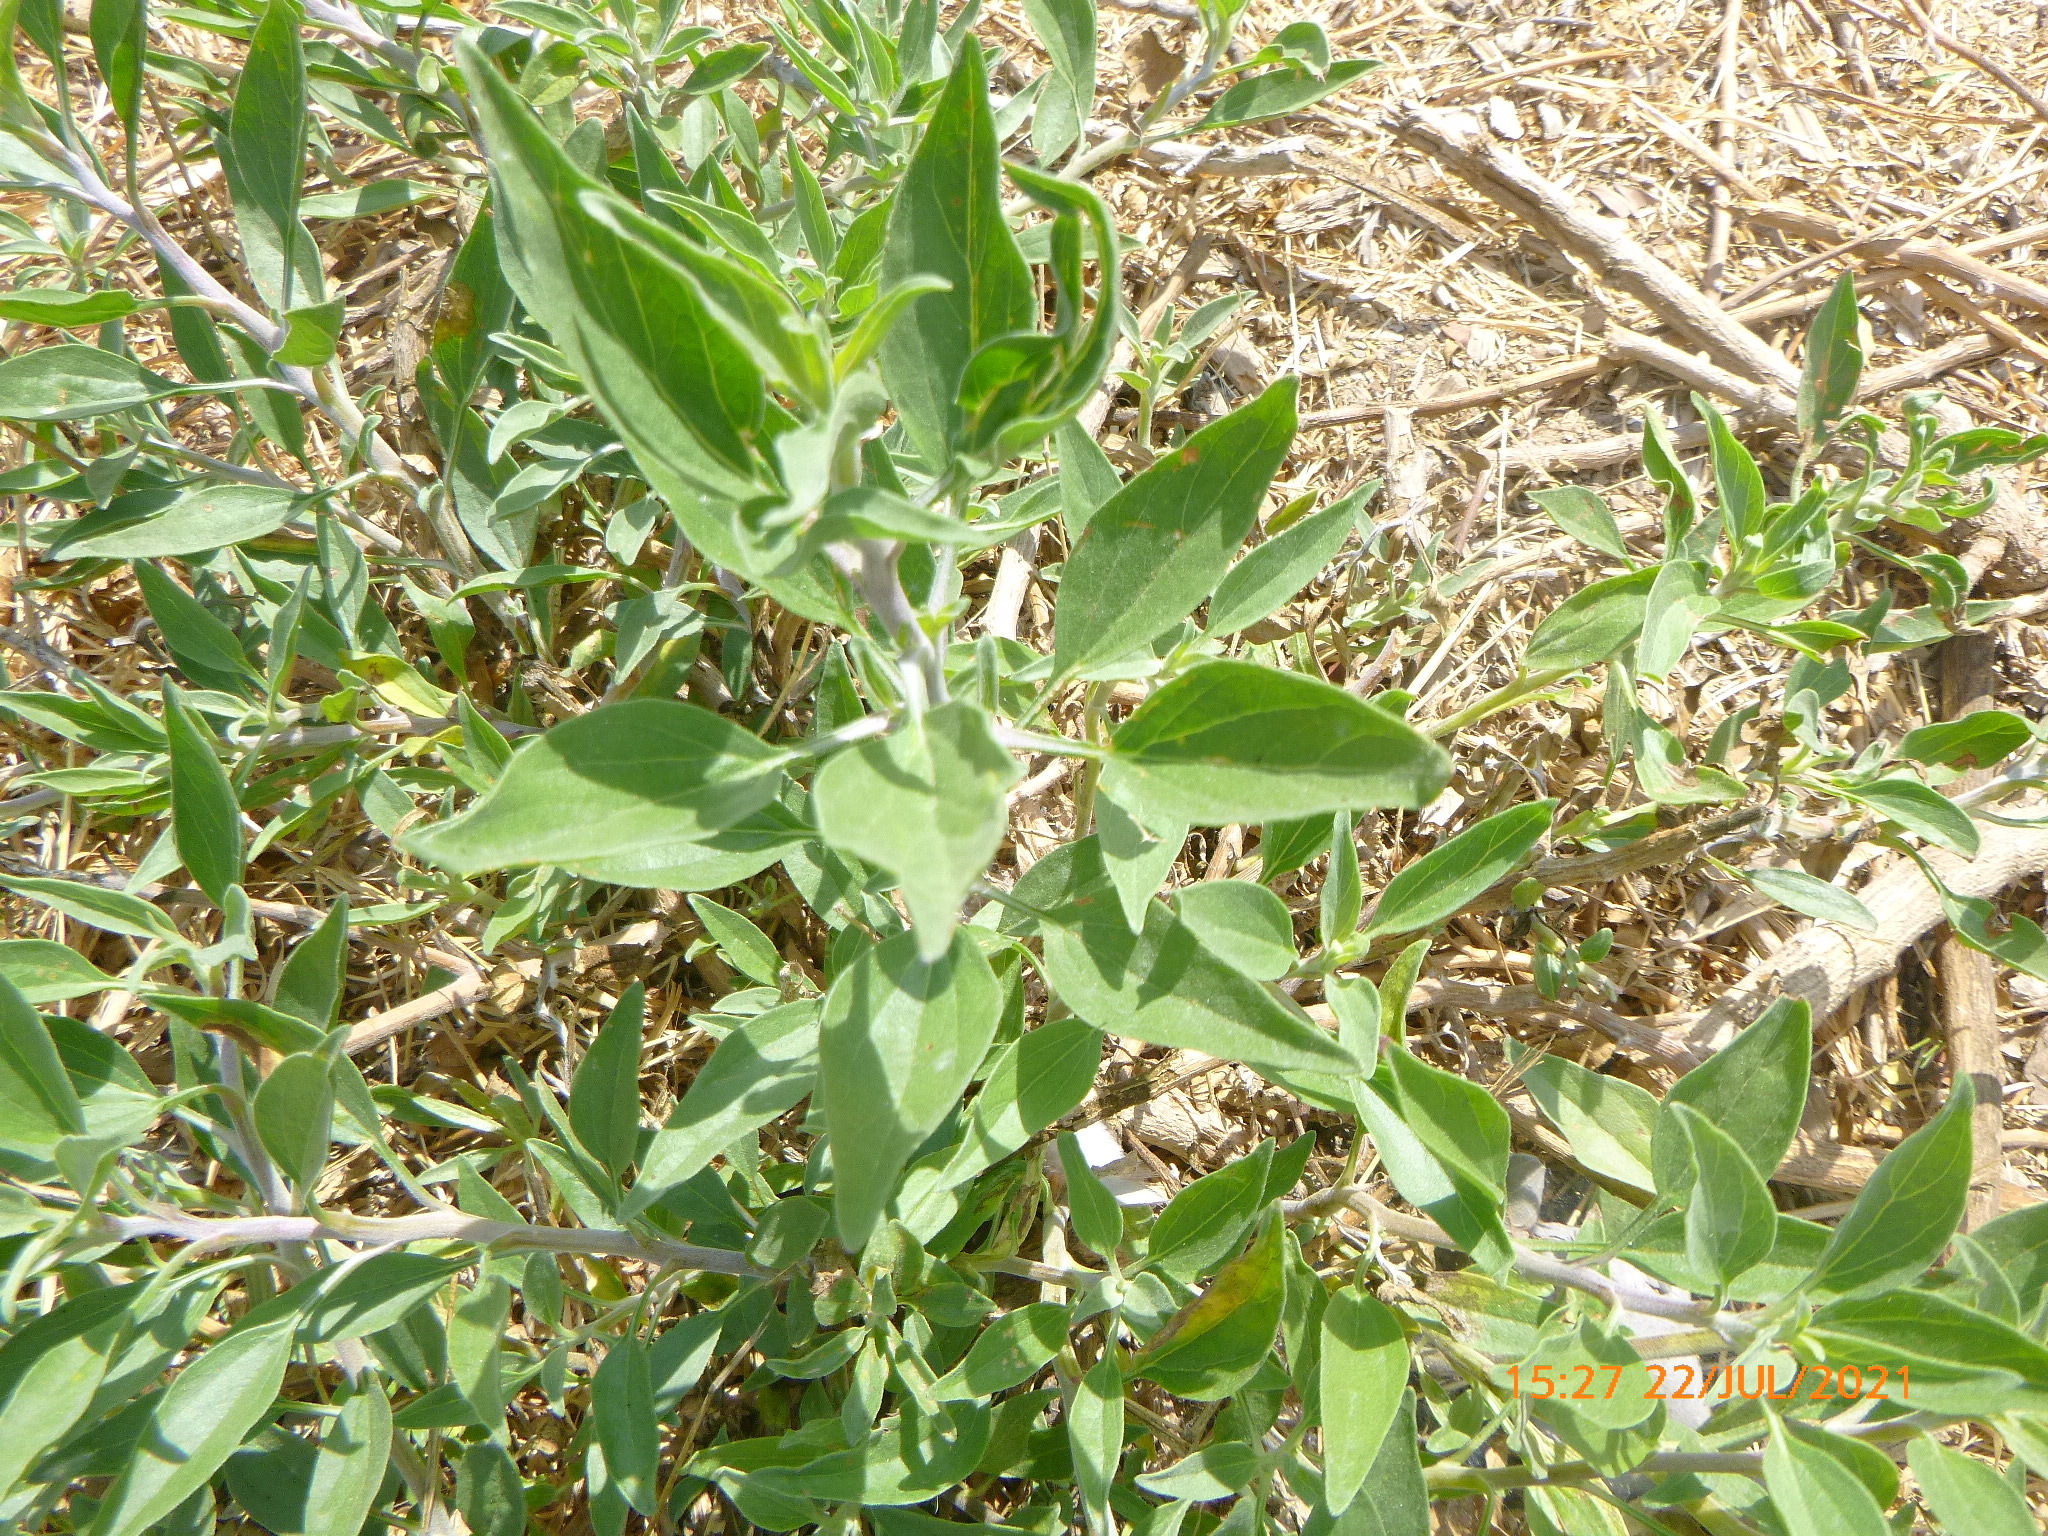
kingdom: Plantae
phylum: Tracheophyta
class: Magnoliopsida
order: Asterales
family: Asteraceae
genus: Encelia
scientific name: Encelia californica
